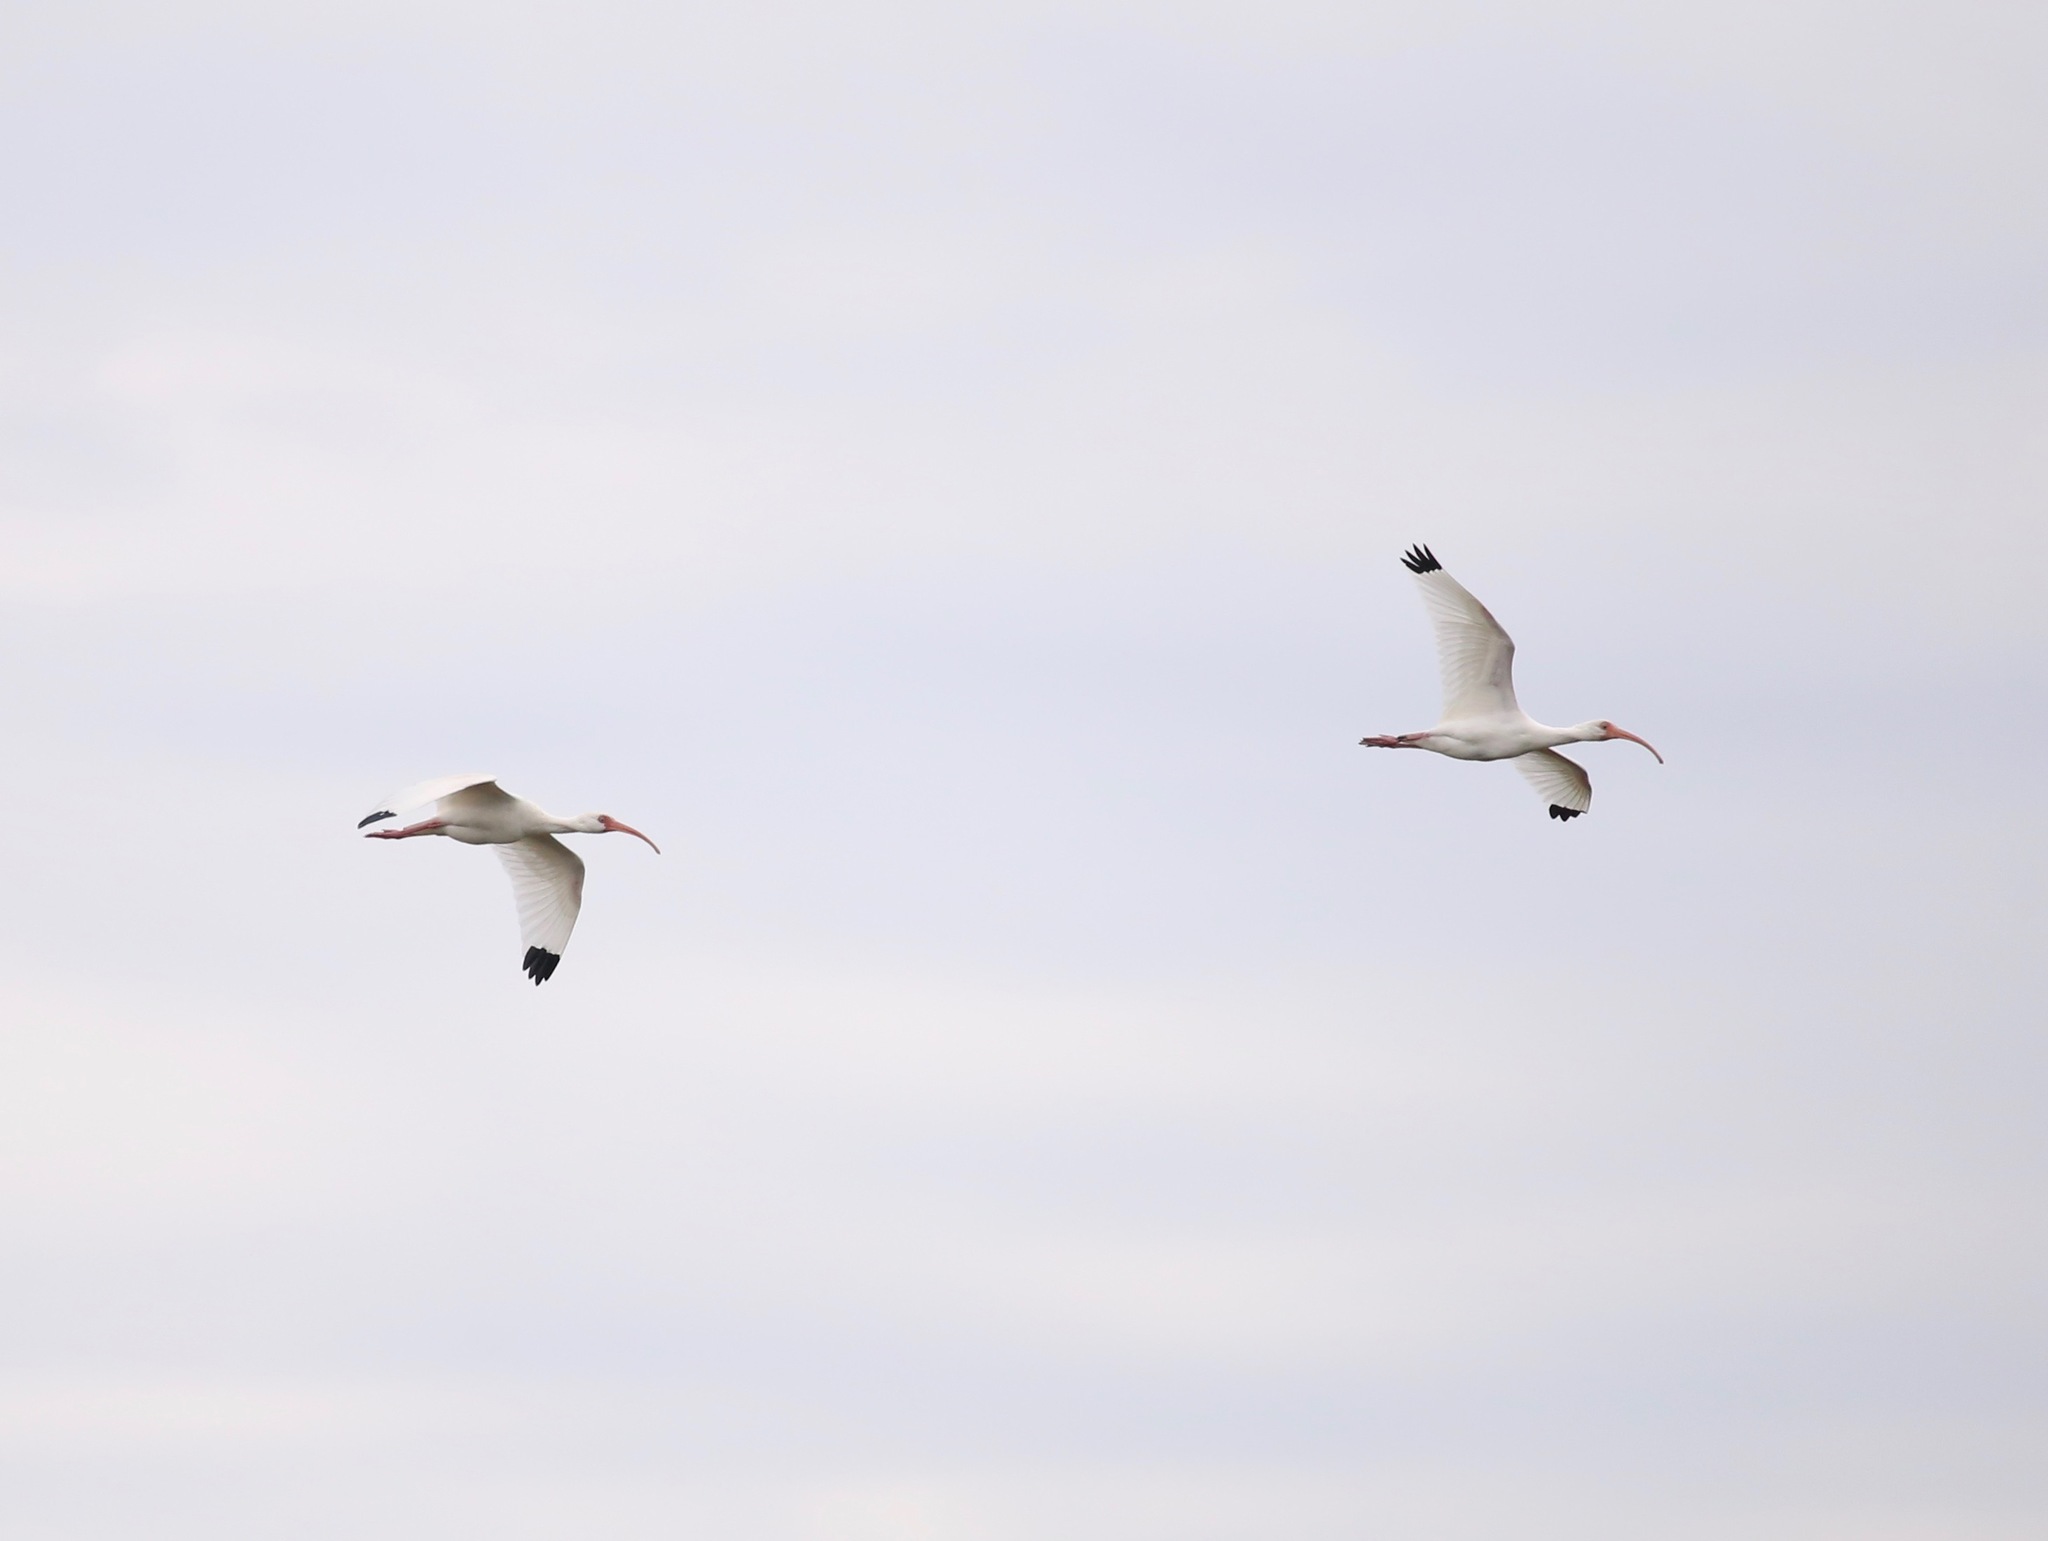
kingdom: Animalia
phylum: Chordata
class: Aves
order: Pelecaniformes
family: Threskiornithidae
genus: Eudocimus
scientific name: Eudocimus albus
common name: White ibis
